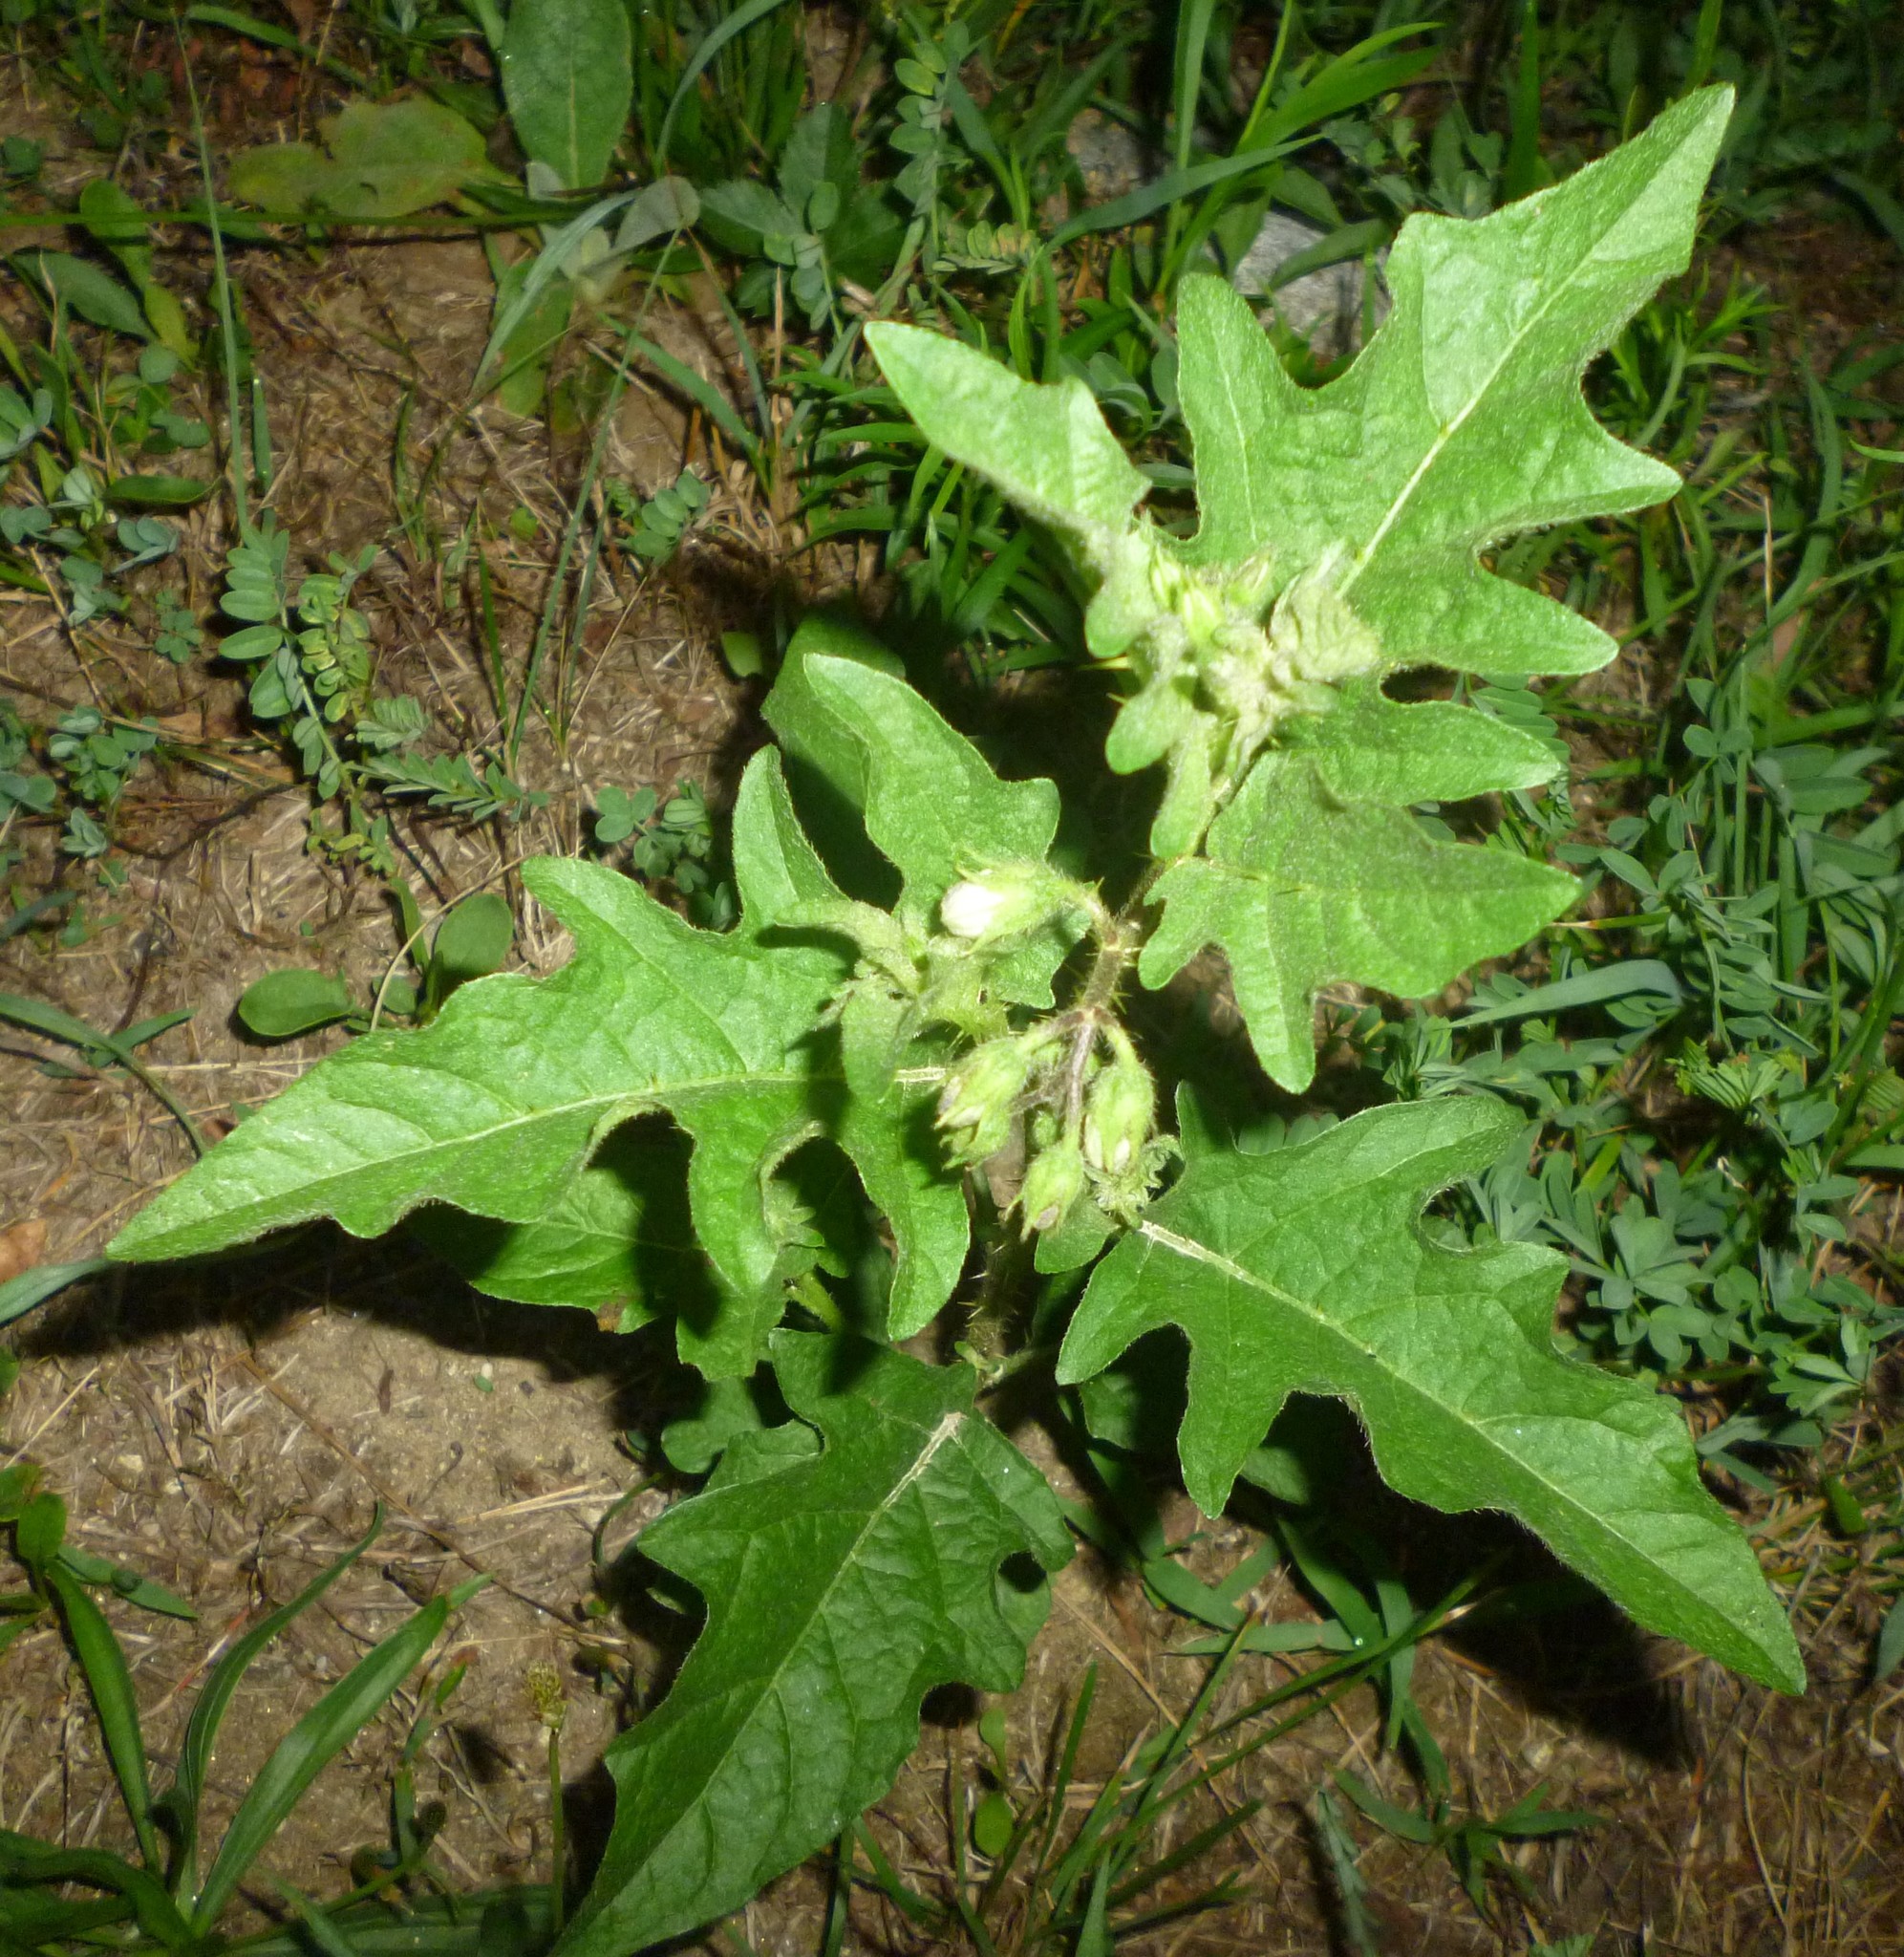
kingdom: Plantae
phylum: Tracheophyta
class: Magnoliopsida
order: Solanales
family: Solanaceae
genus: Solanum
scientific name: Solanum carolinense
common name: Horse-nettle
